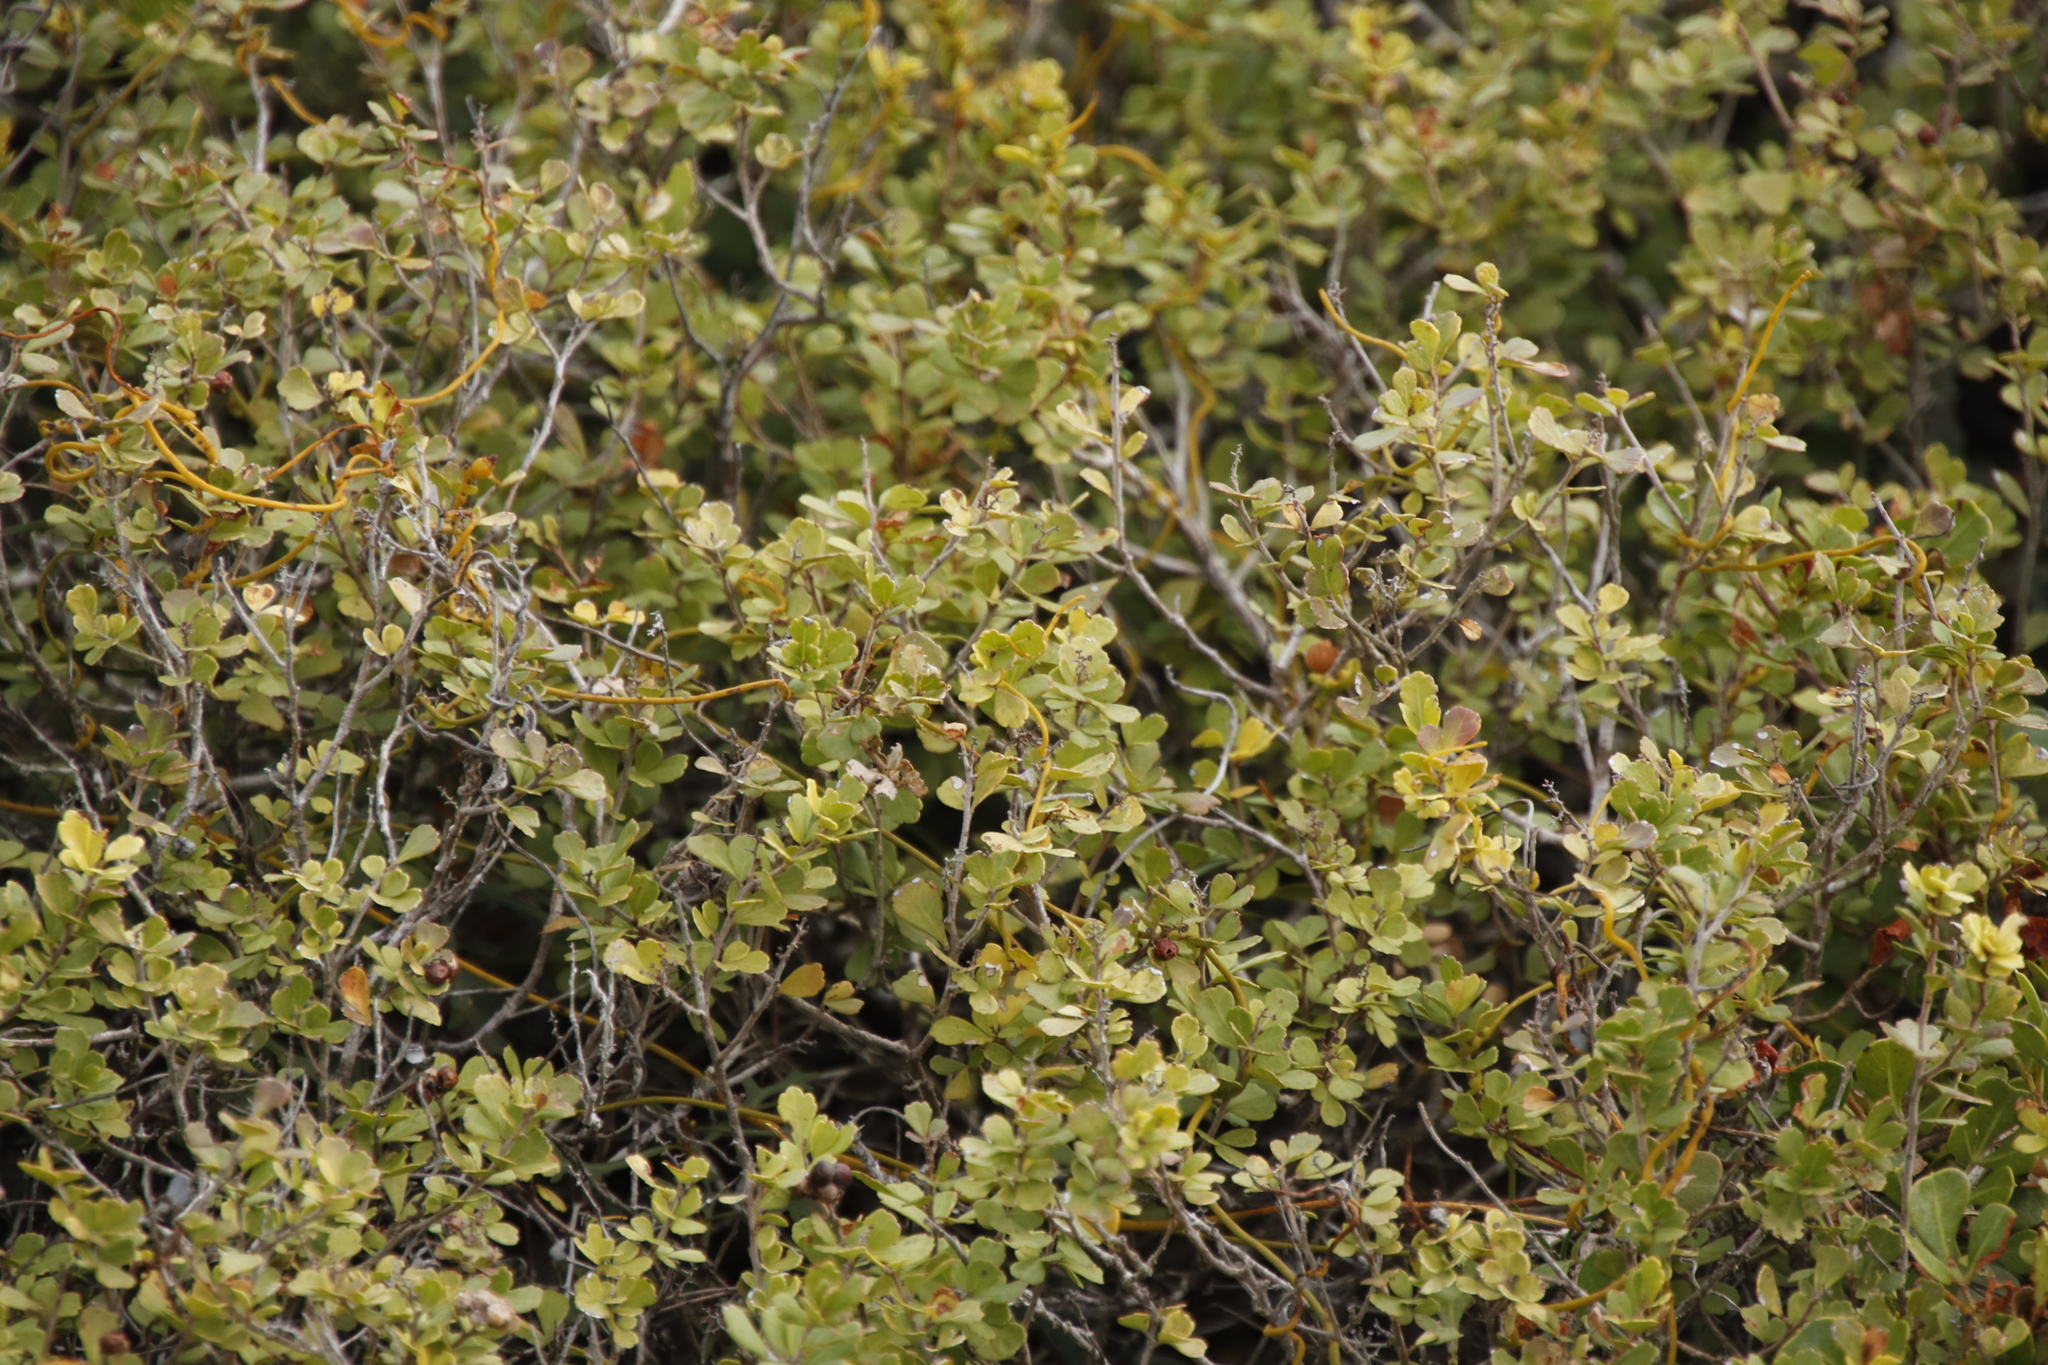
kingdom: Plantae
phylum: Tracheophyta
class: Magnoliopsida
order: Sapindales
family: Anacardiaceae
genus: Searsia
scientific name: Searsia crenata
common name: Crowberry
